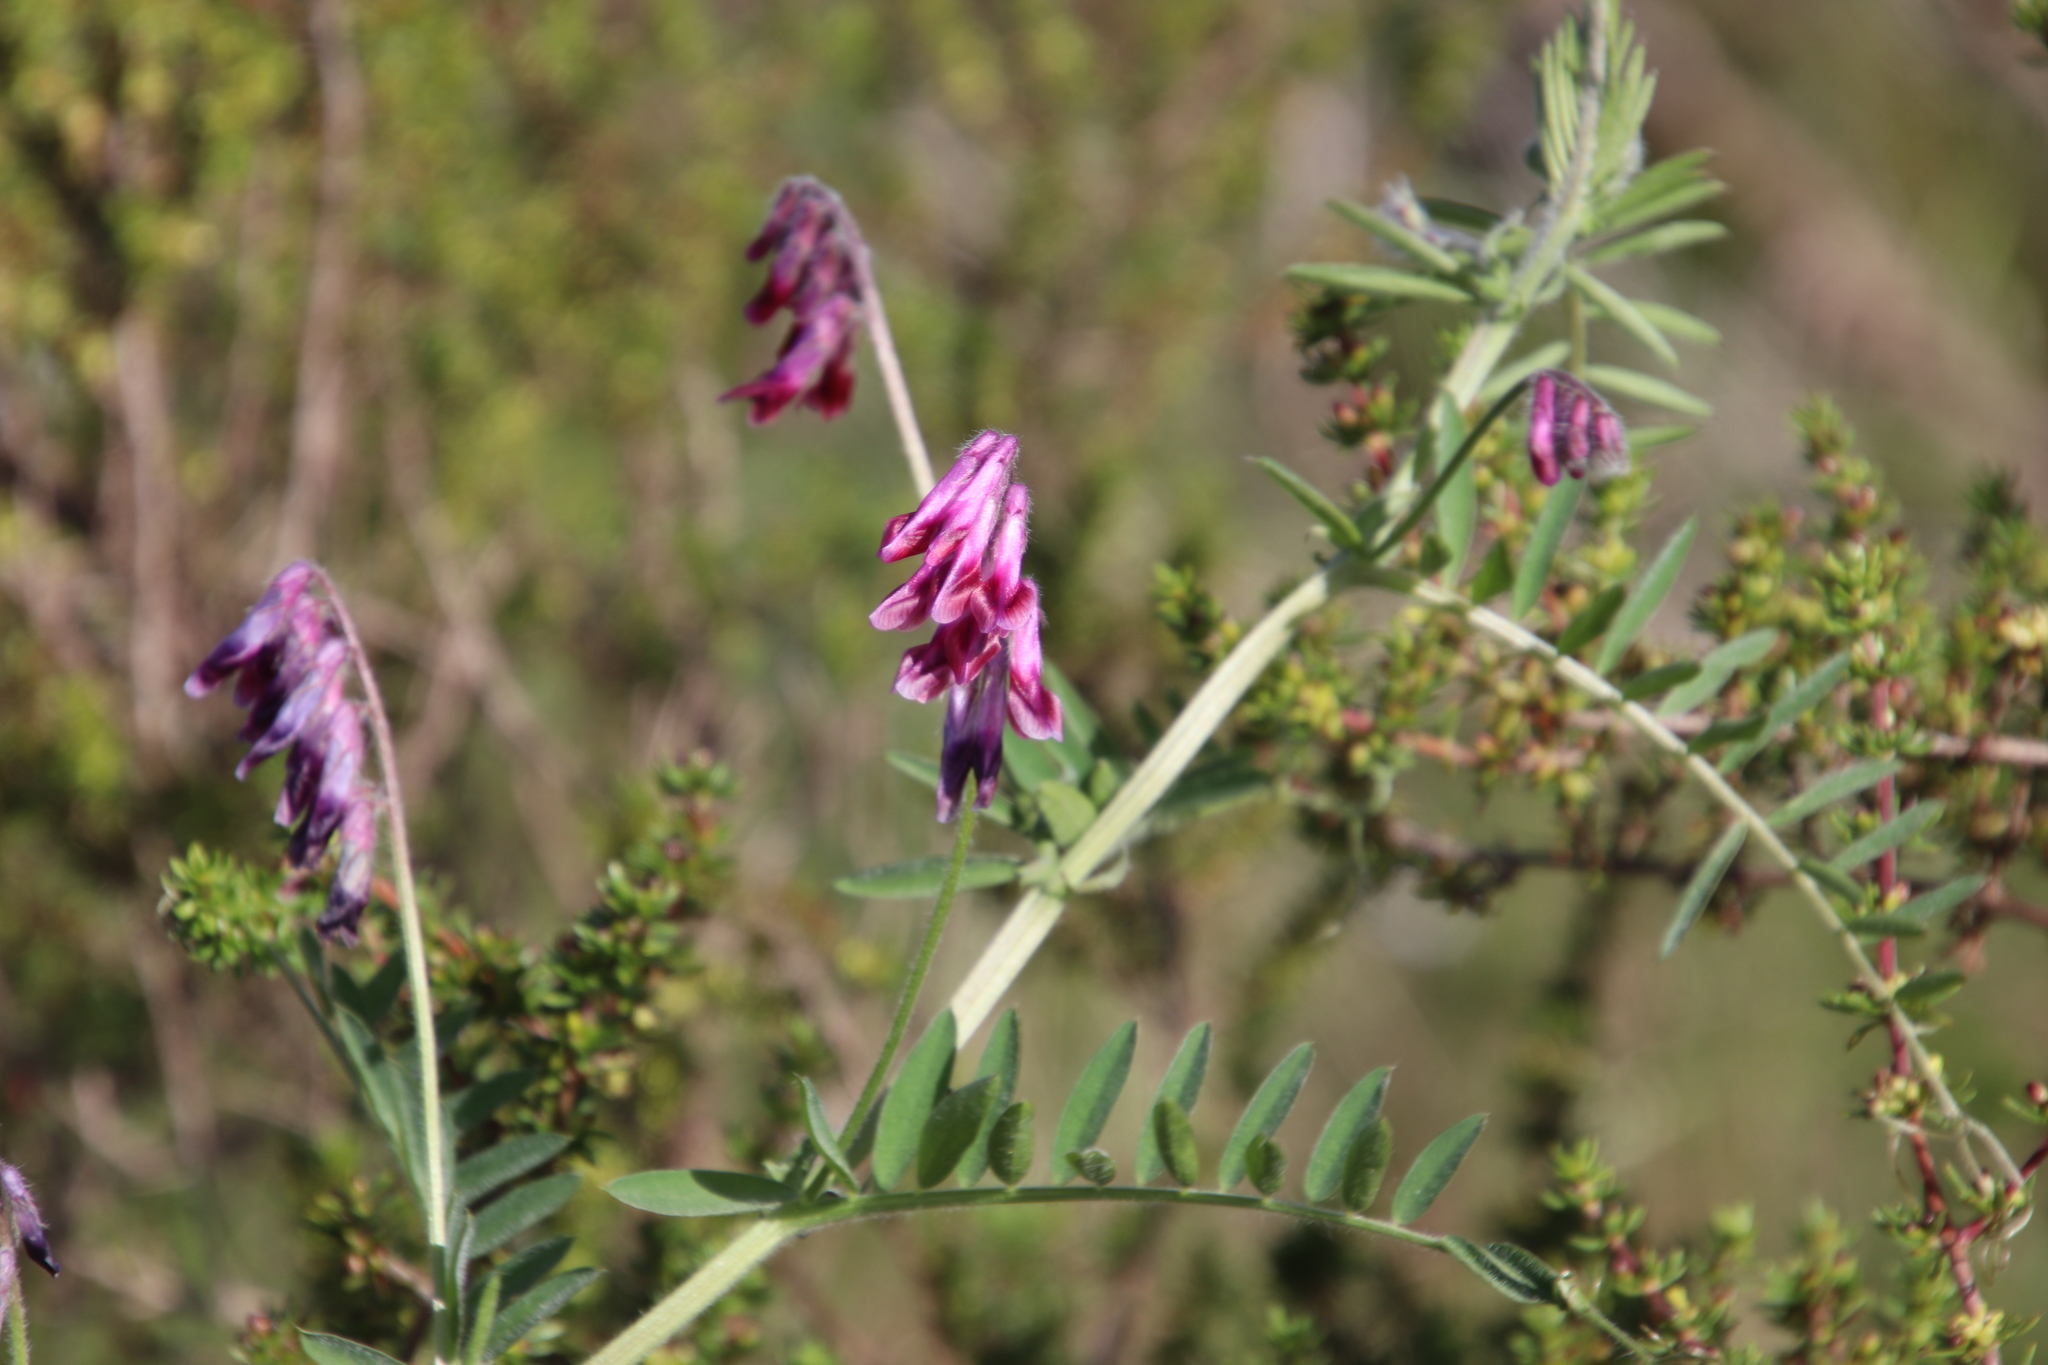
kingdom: Plantae
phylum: Tracheophyta
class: Magnoliopsida
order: Fabales
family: Fabaceae
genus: Vicia
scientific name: Vicia benghalensis
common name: Purple vetch
